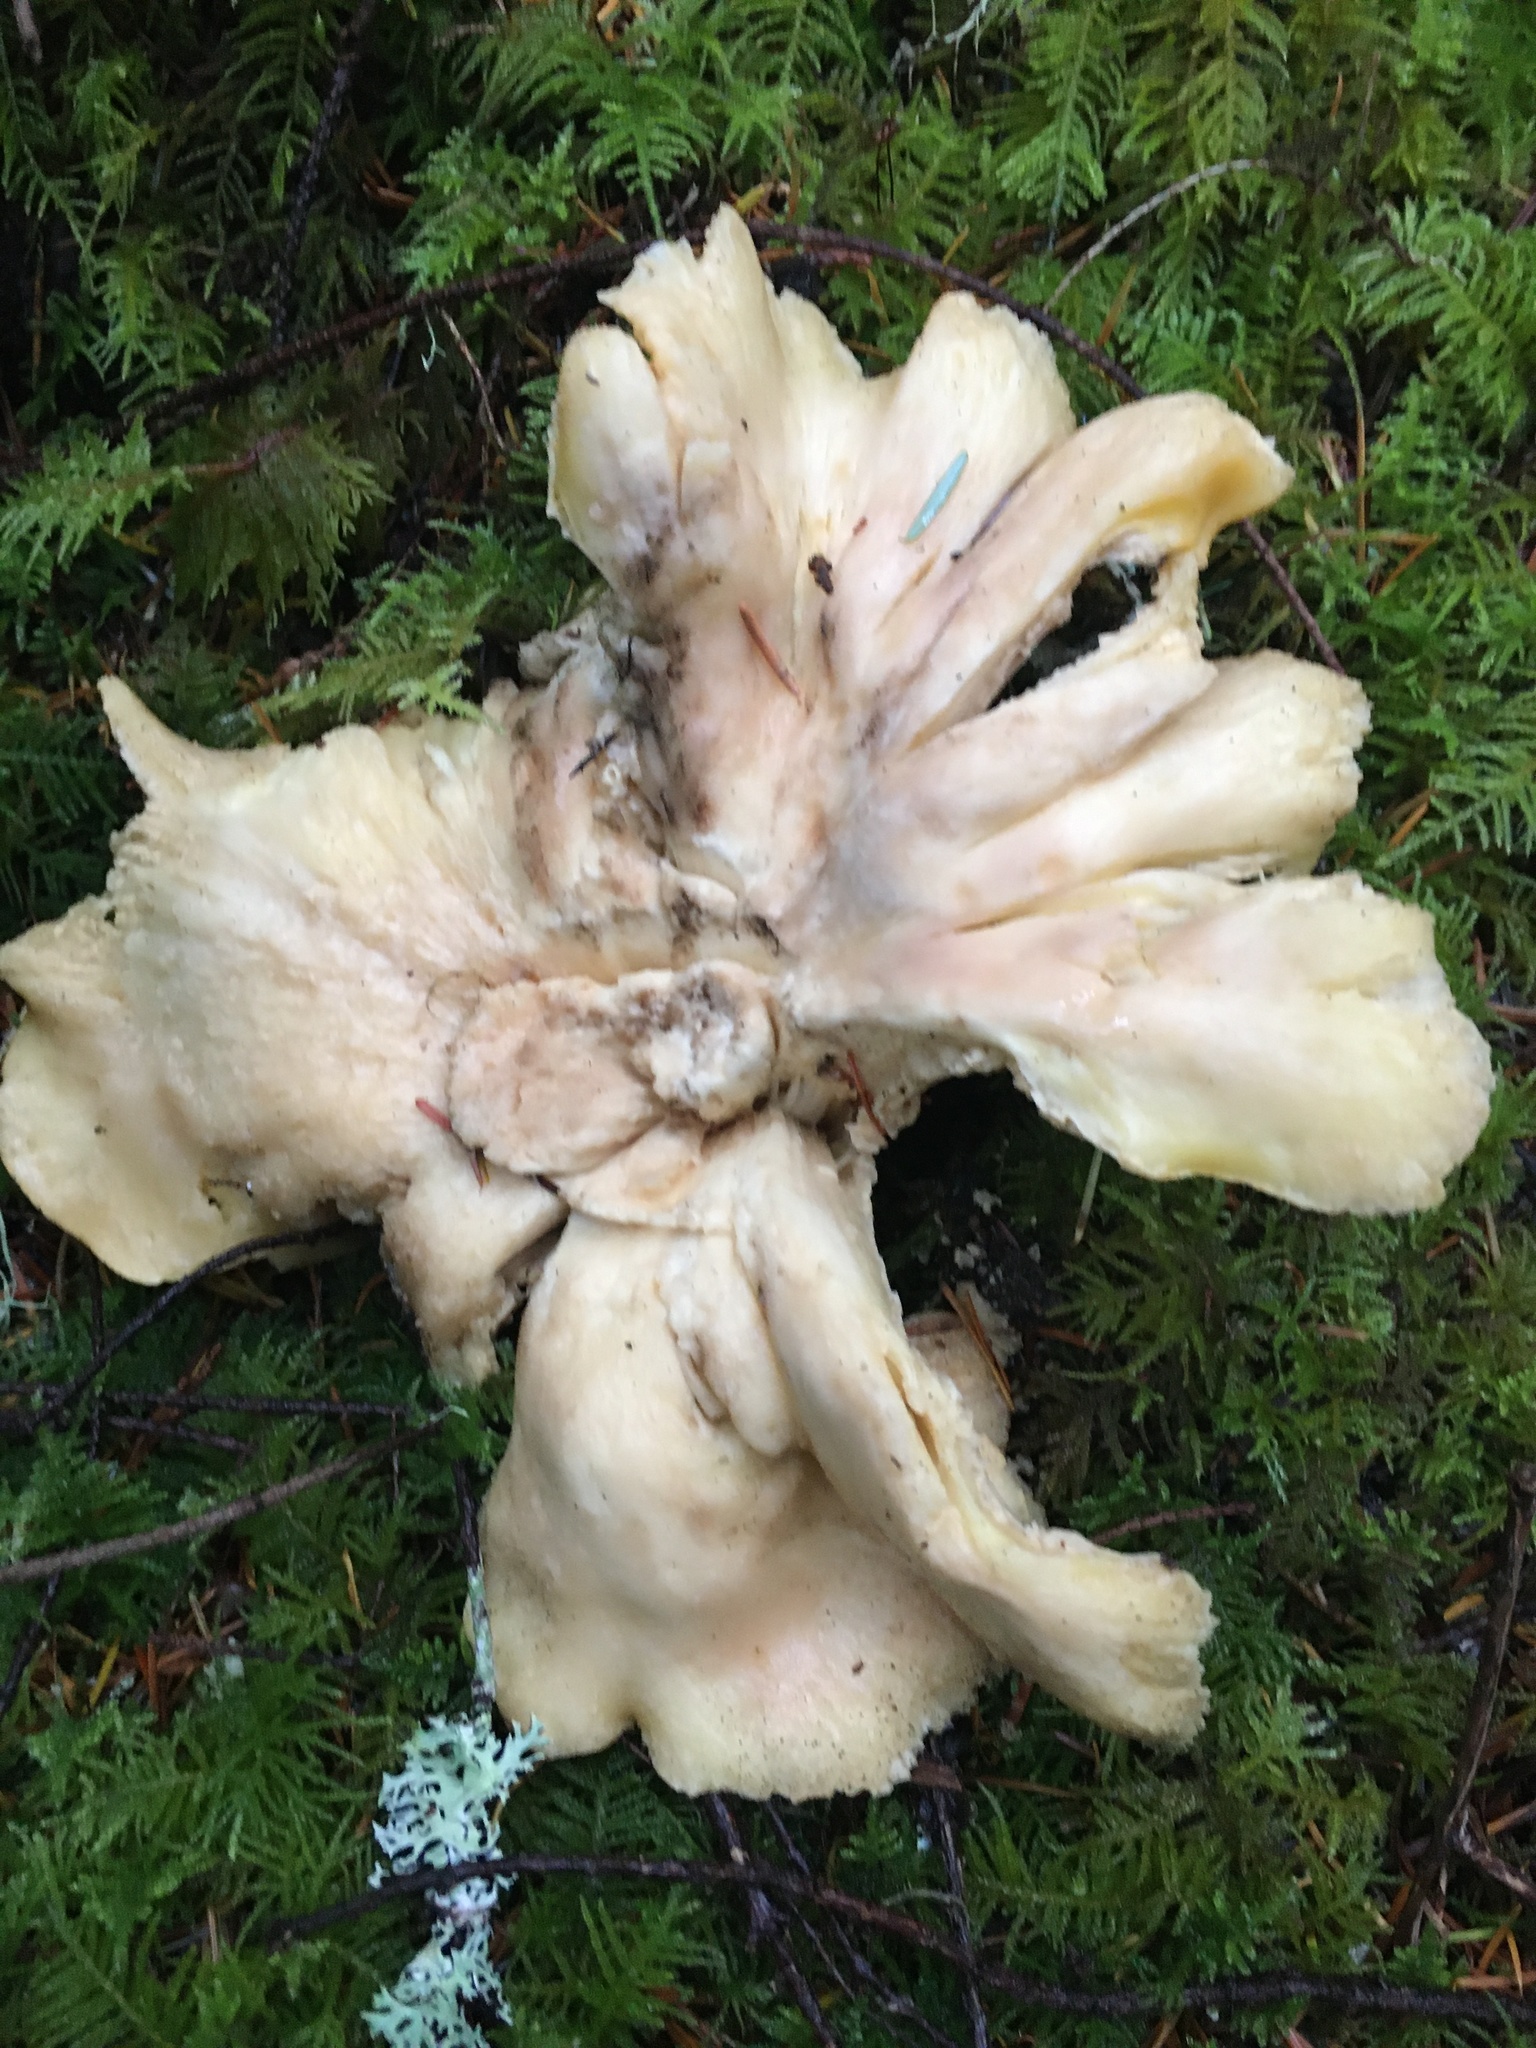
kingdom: Fungi
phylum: Basidiomycota
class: Agaricomycetes
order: Gomphales
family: Gomphaceae
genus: Gomphus
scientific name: Gomphus clavatus
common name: Pig's ear
